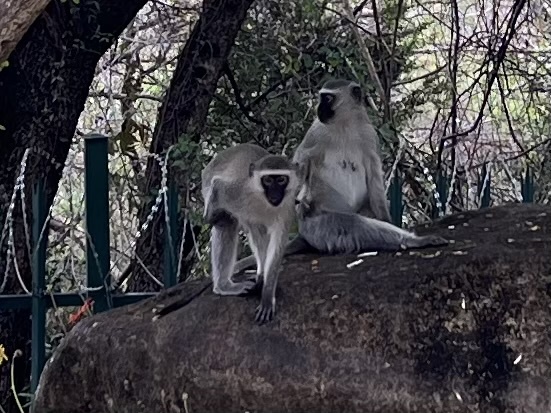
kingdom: Animalia
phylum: Chordata
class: Mammalia
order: Primates
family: Cercopithecidae
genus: Chlorocebus
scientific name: Chlorocebus pygerythrus
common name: Vervet monkey
